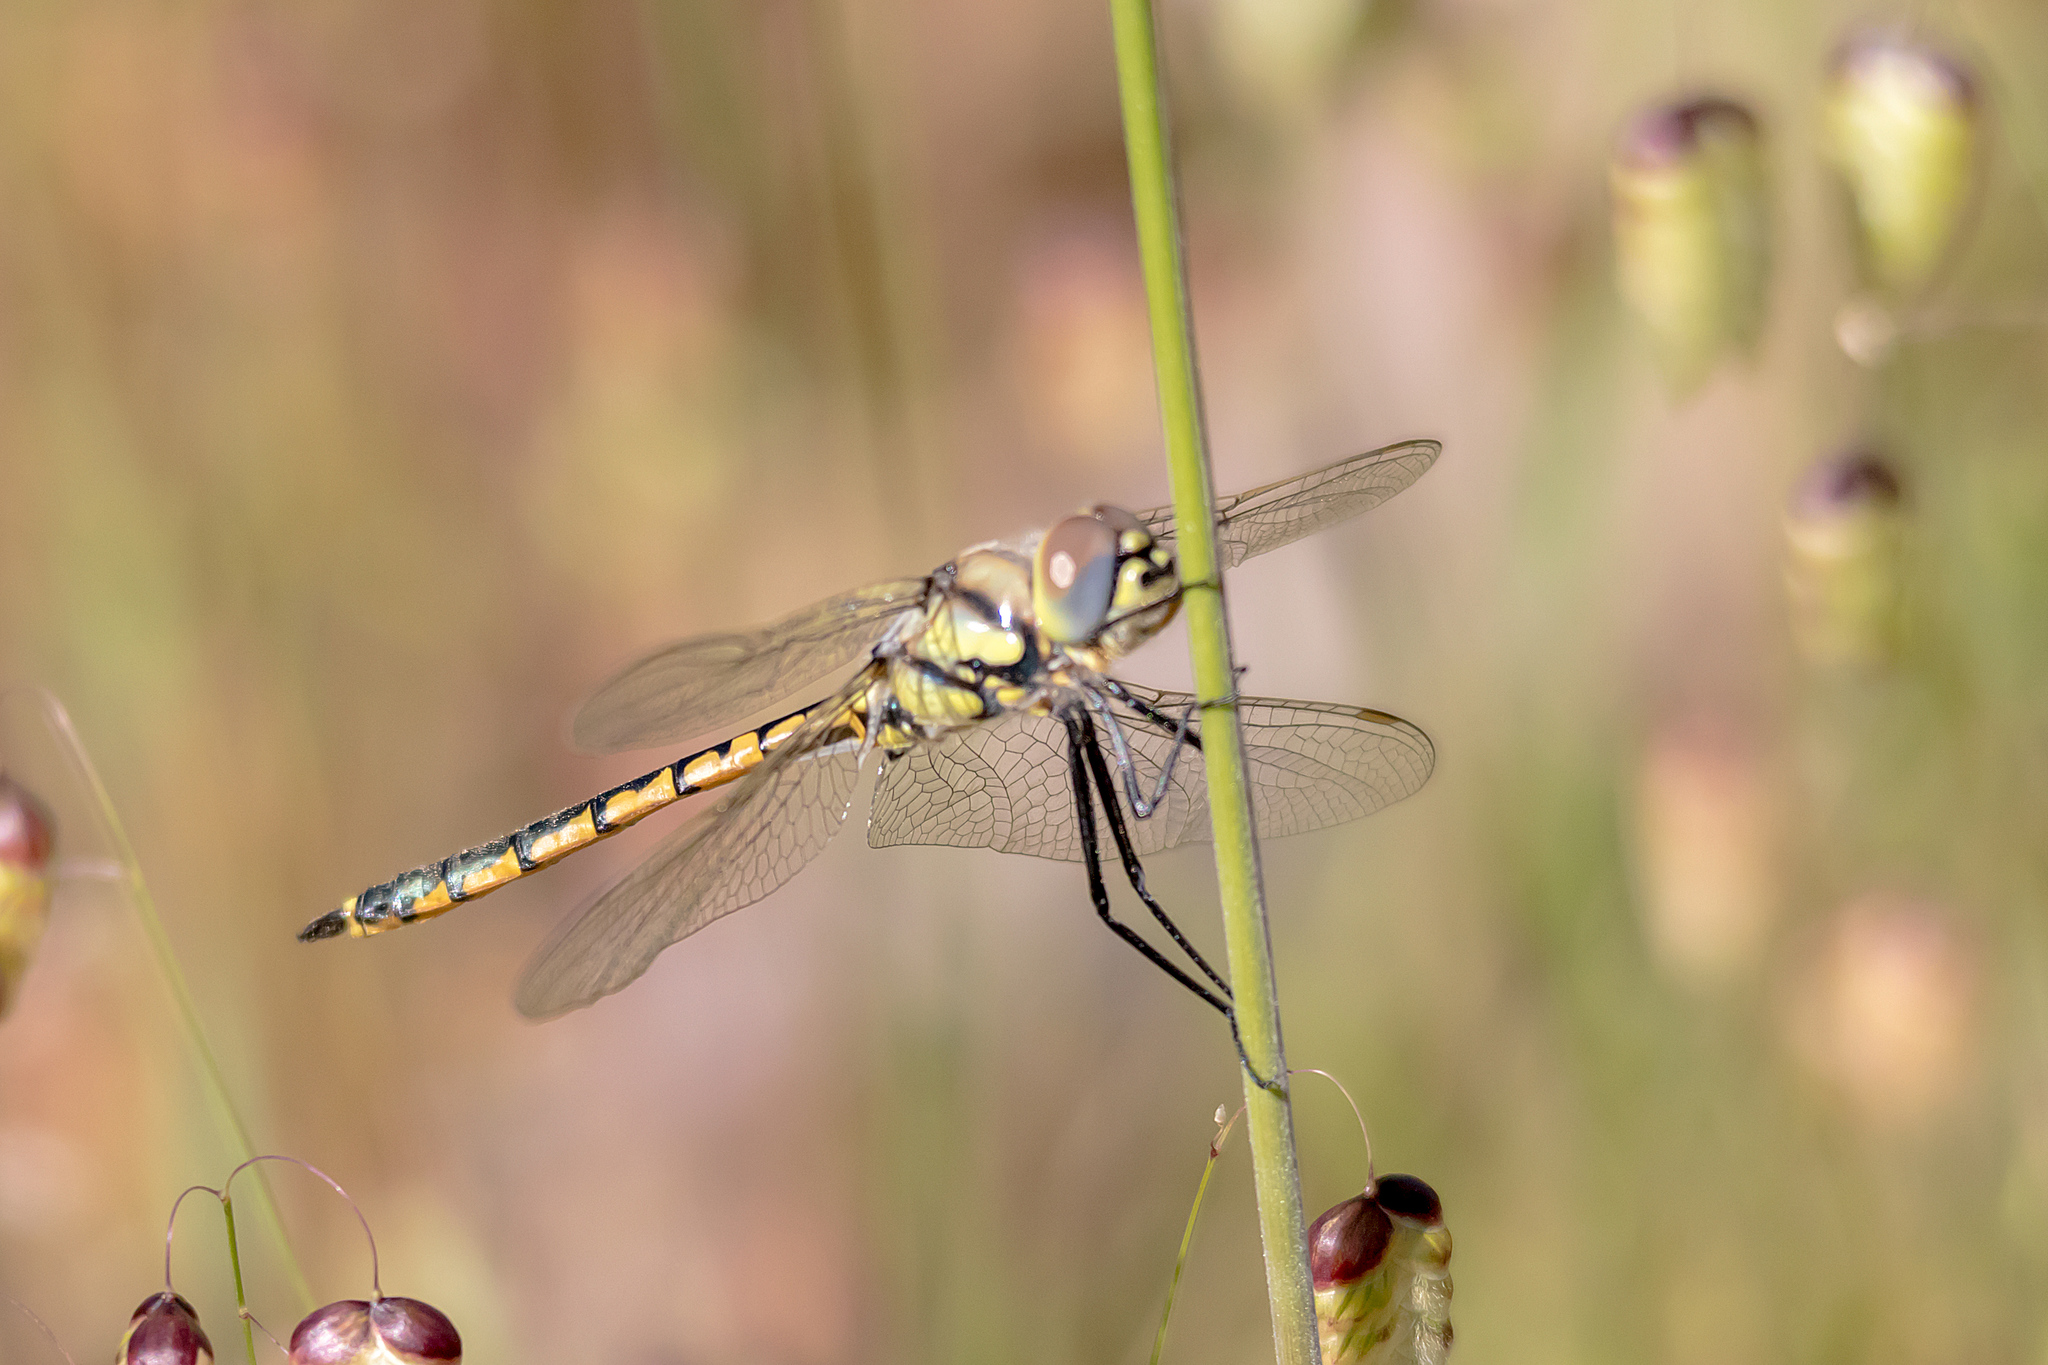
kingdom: Animalia
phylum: Arthropoda
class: Insecta
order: Odonata
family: Corduliidae
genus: Hemicordulia
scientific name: Hemicordulia tau
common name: Tau emerald
